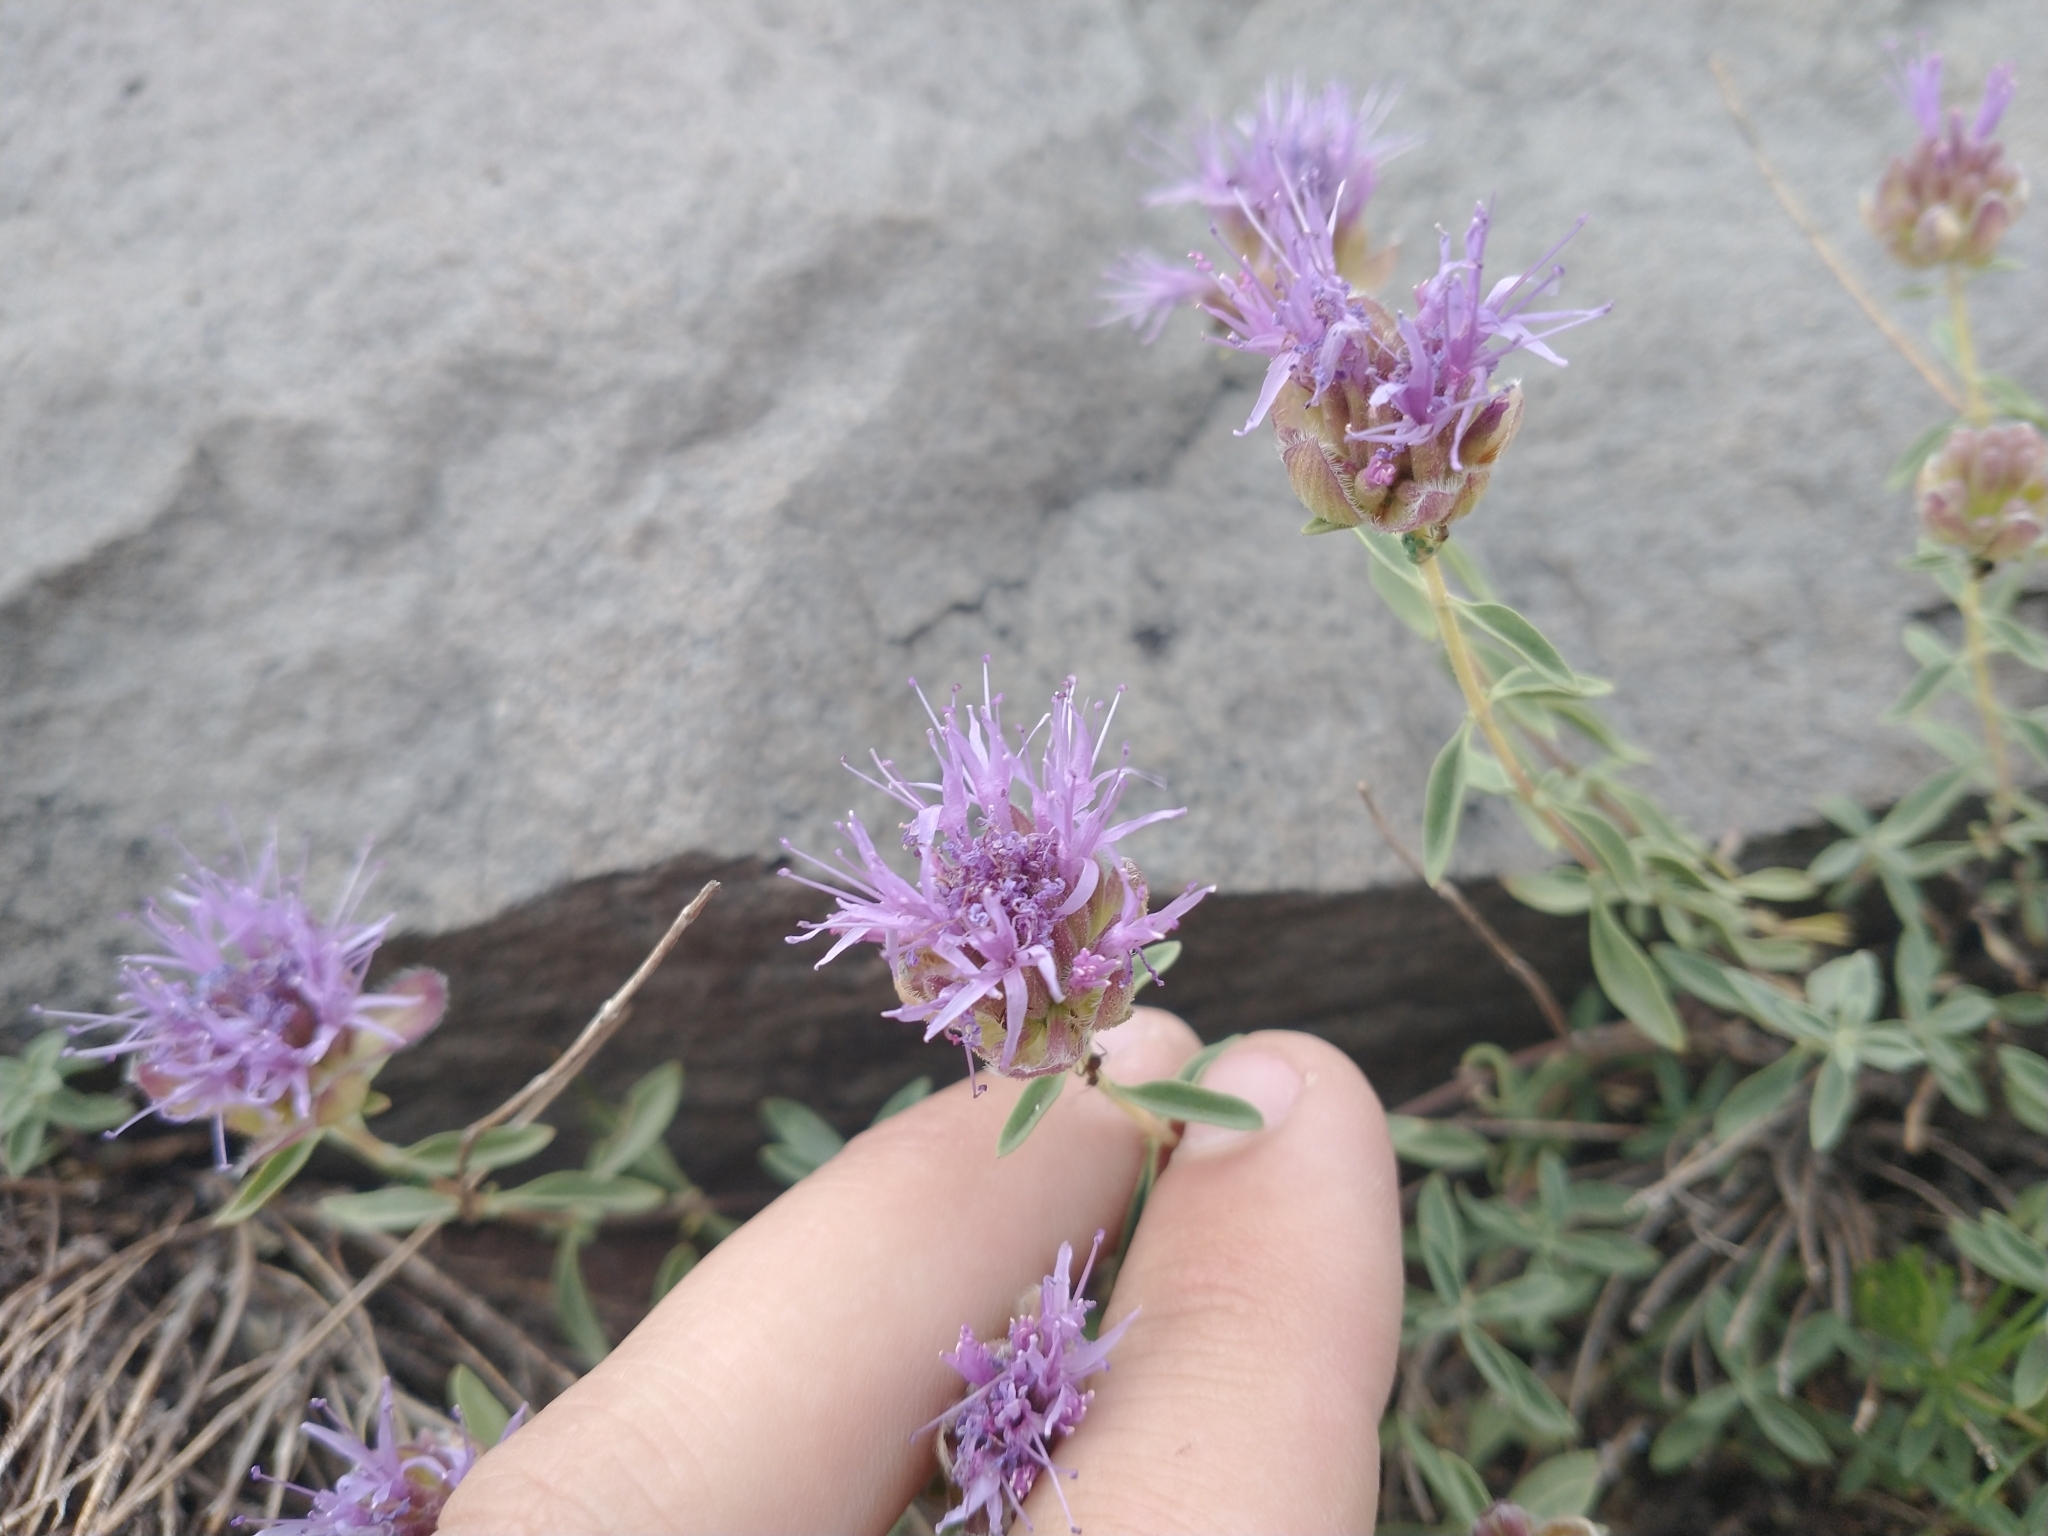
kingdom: Plantae
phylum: Tracheophyta
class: Magnoliopsida
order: Lamiales
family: Lamiaceae
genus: Monardella
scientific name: Monardella odoratissima
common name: Pacific monardella
